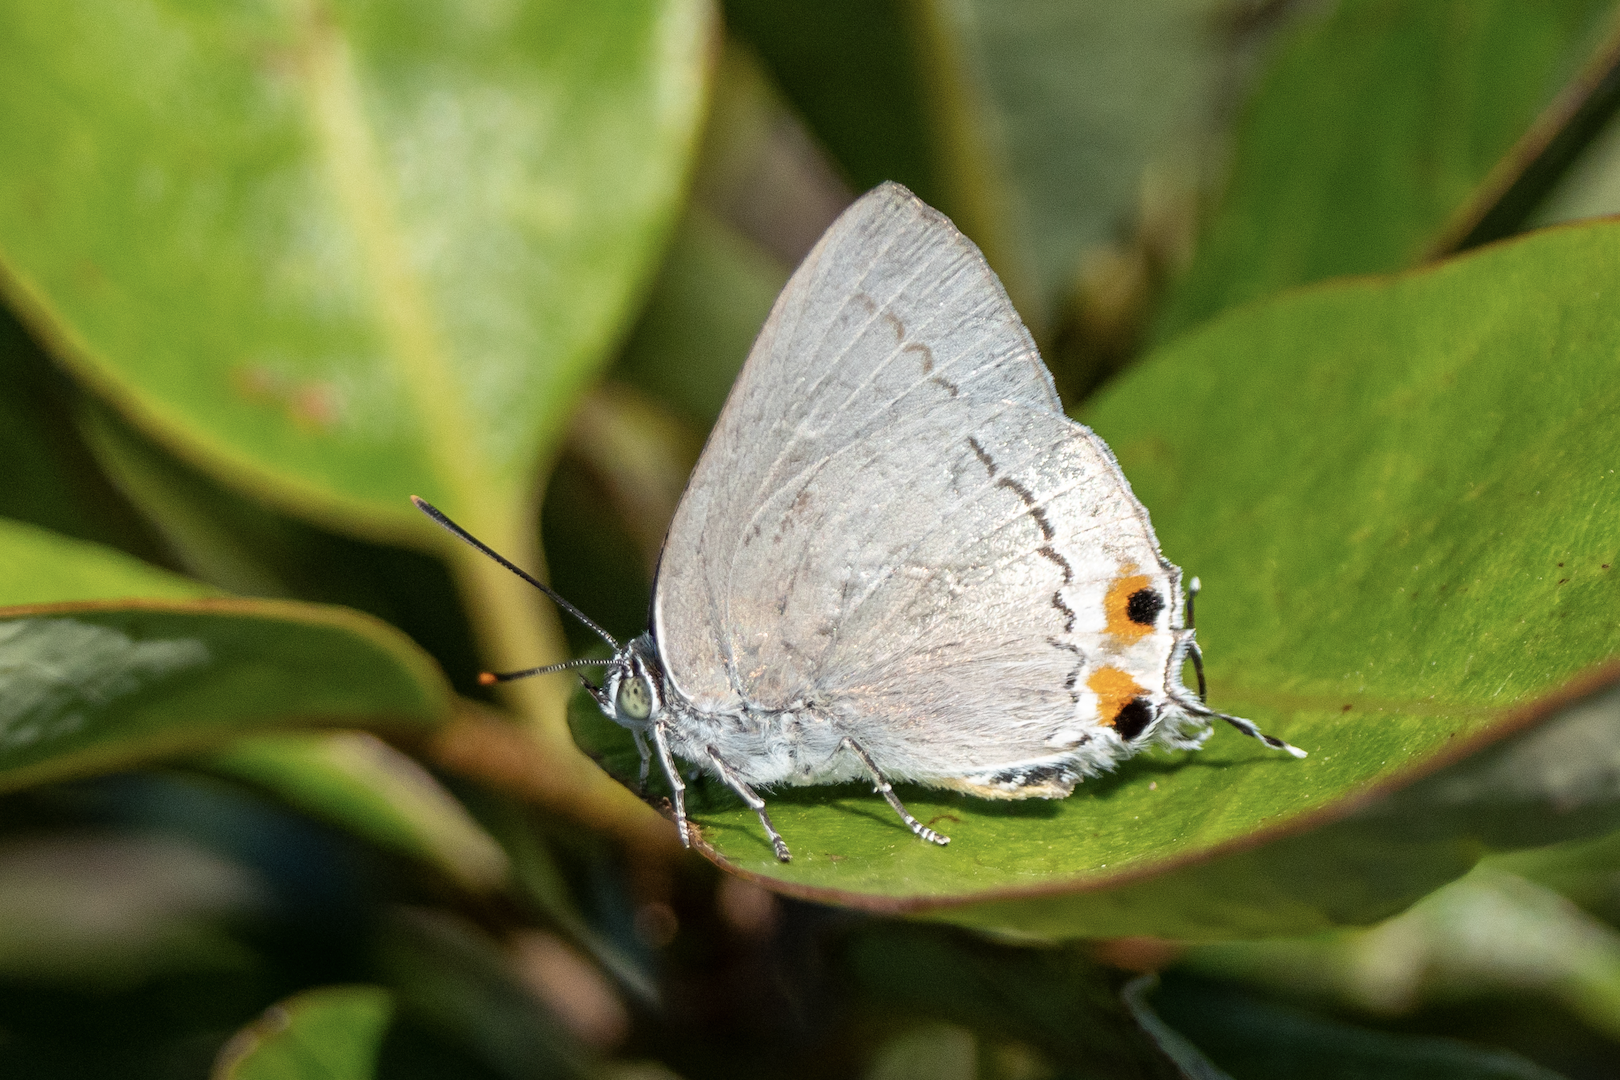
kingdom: Animalia
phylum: Arthropoda
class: Insecta
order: Lepidoptera
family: Lycaenidae
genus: Ancema
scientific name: Ancema blanka
